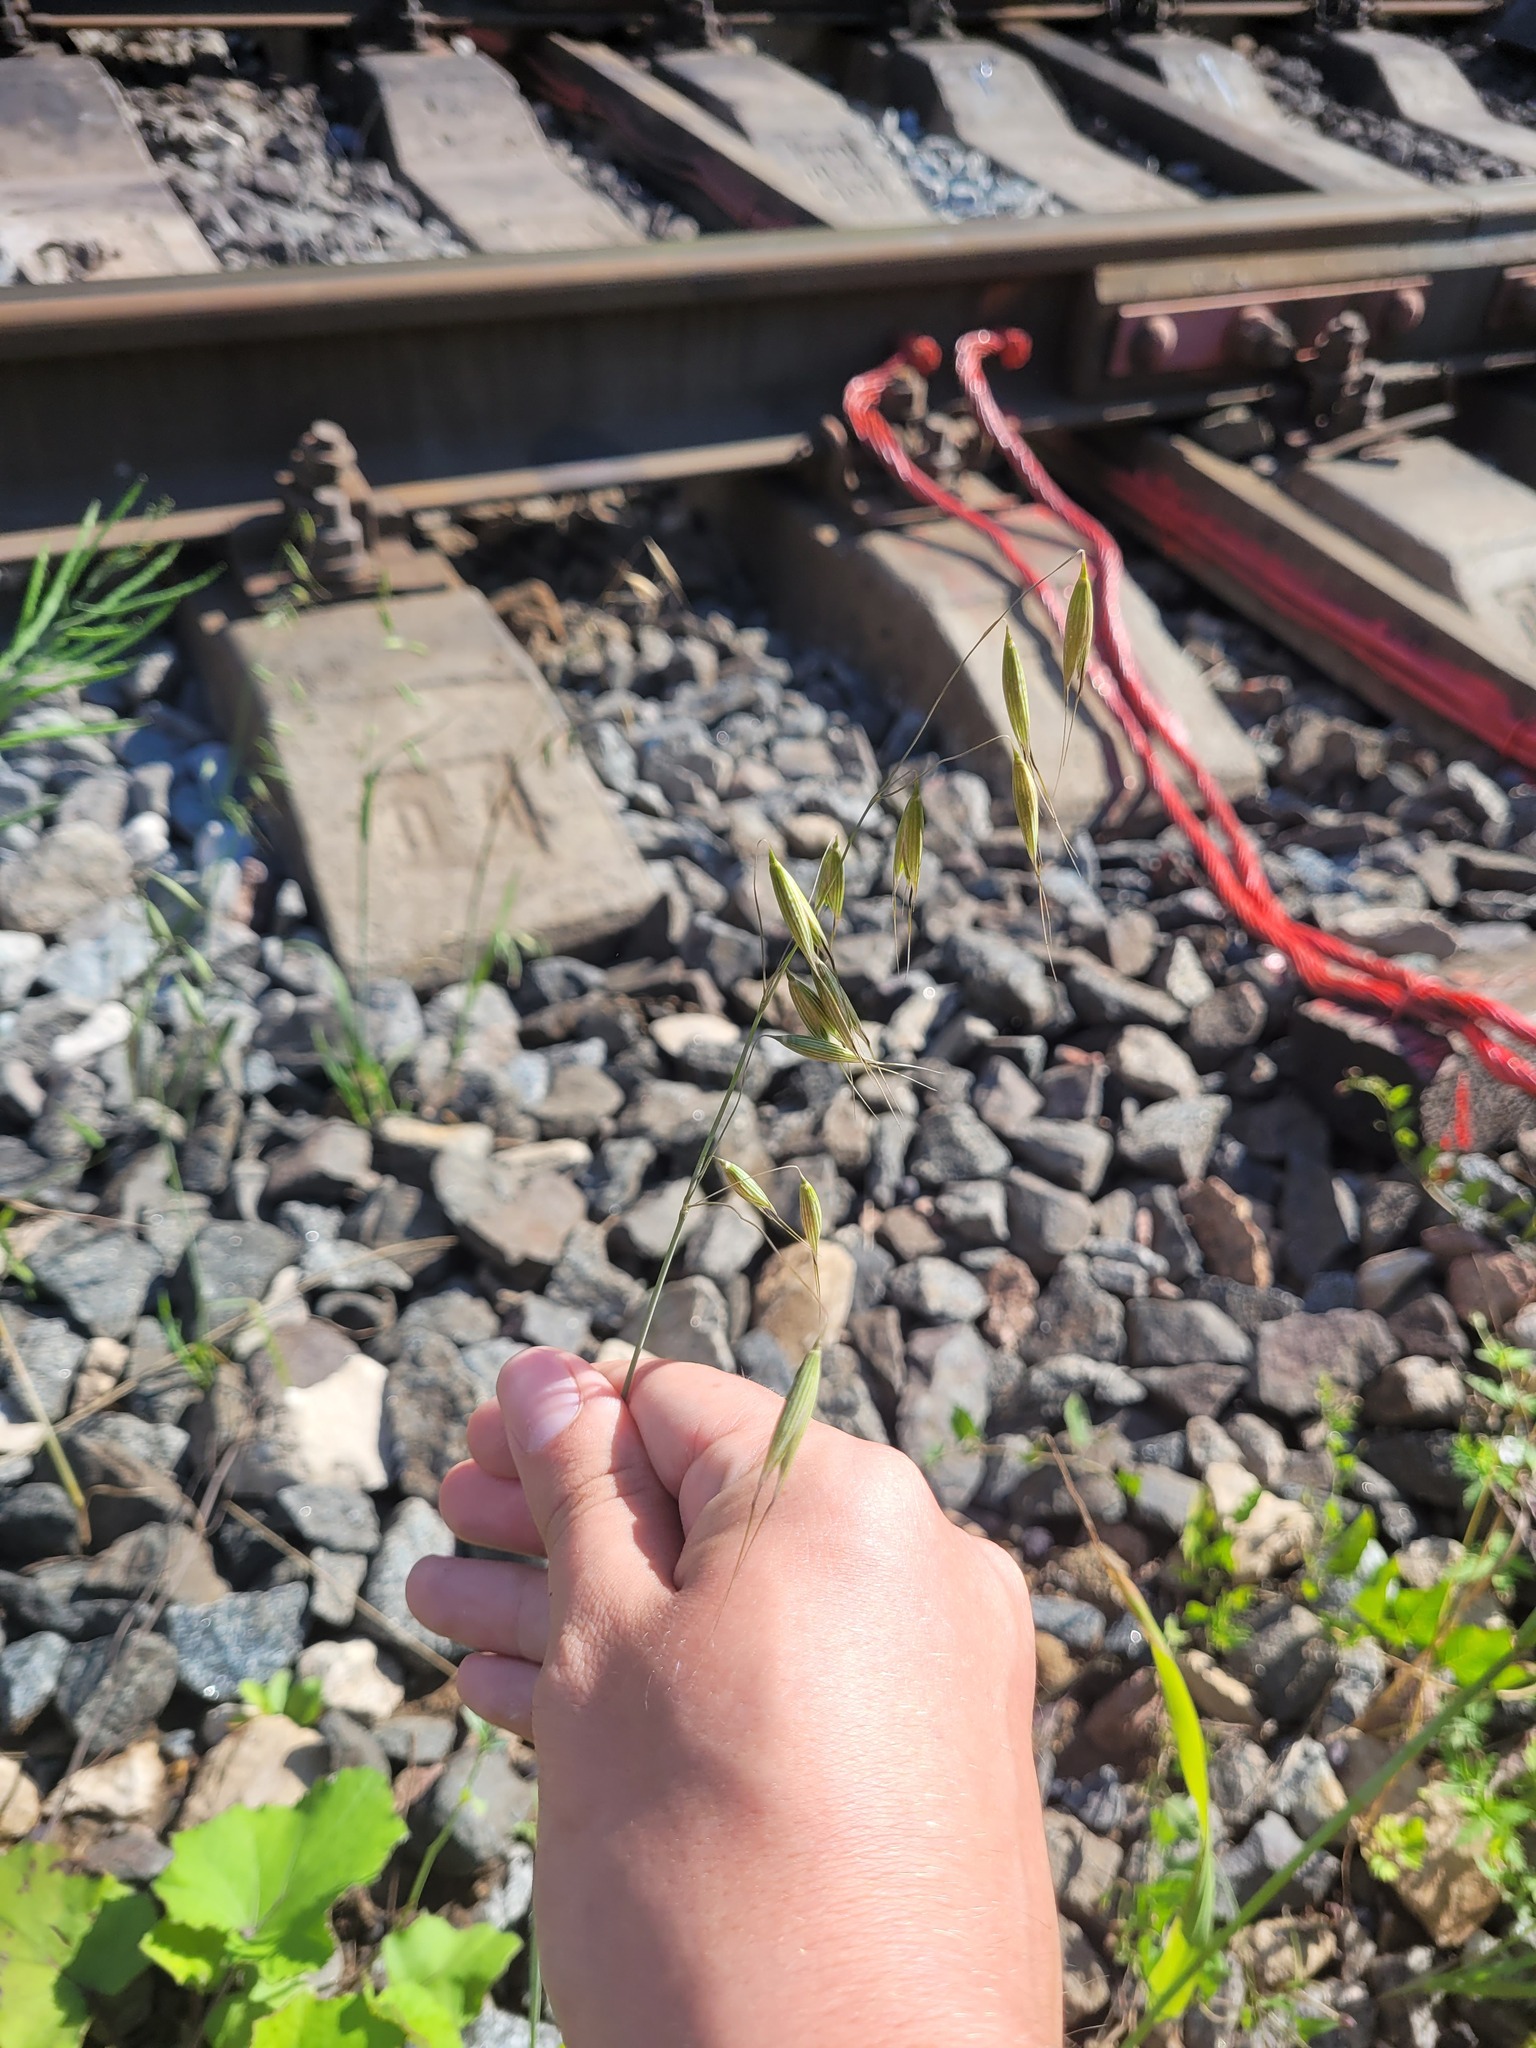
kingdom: Plantae
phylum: Tracheophyta
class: Liliopsida
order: Poales
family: Poaceae
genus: Avena
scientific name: Avena fatua
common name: Wild oat
